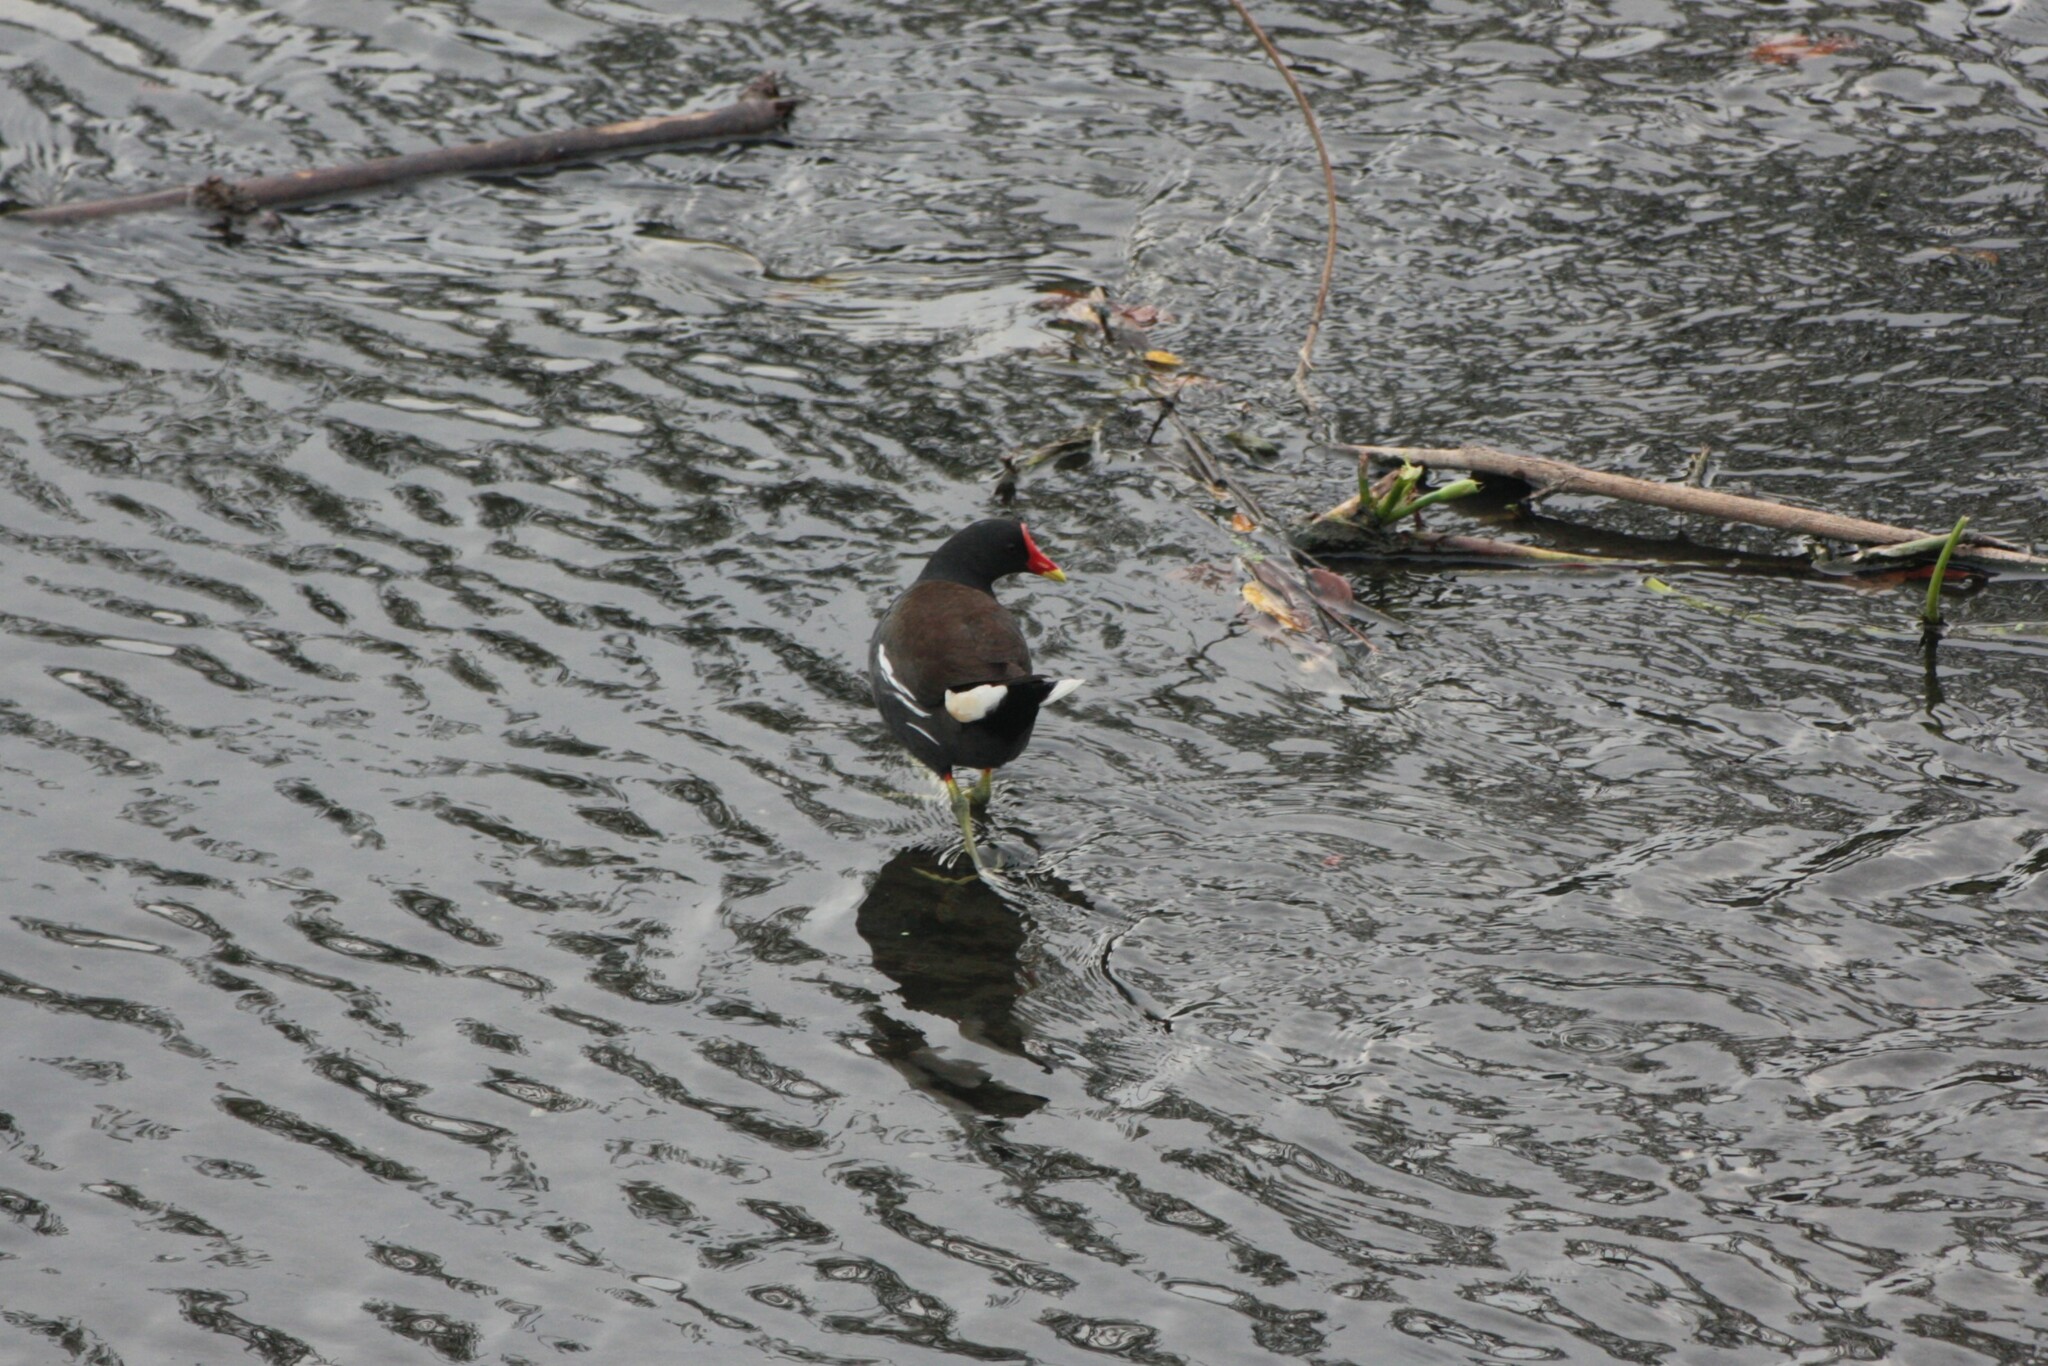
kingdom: Animalia
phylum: Chordata
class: Aves
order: Gruiformes
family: Rallidae
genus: Gallinula
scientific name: Gallinula chloropus
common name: Common moorhen
